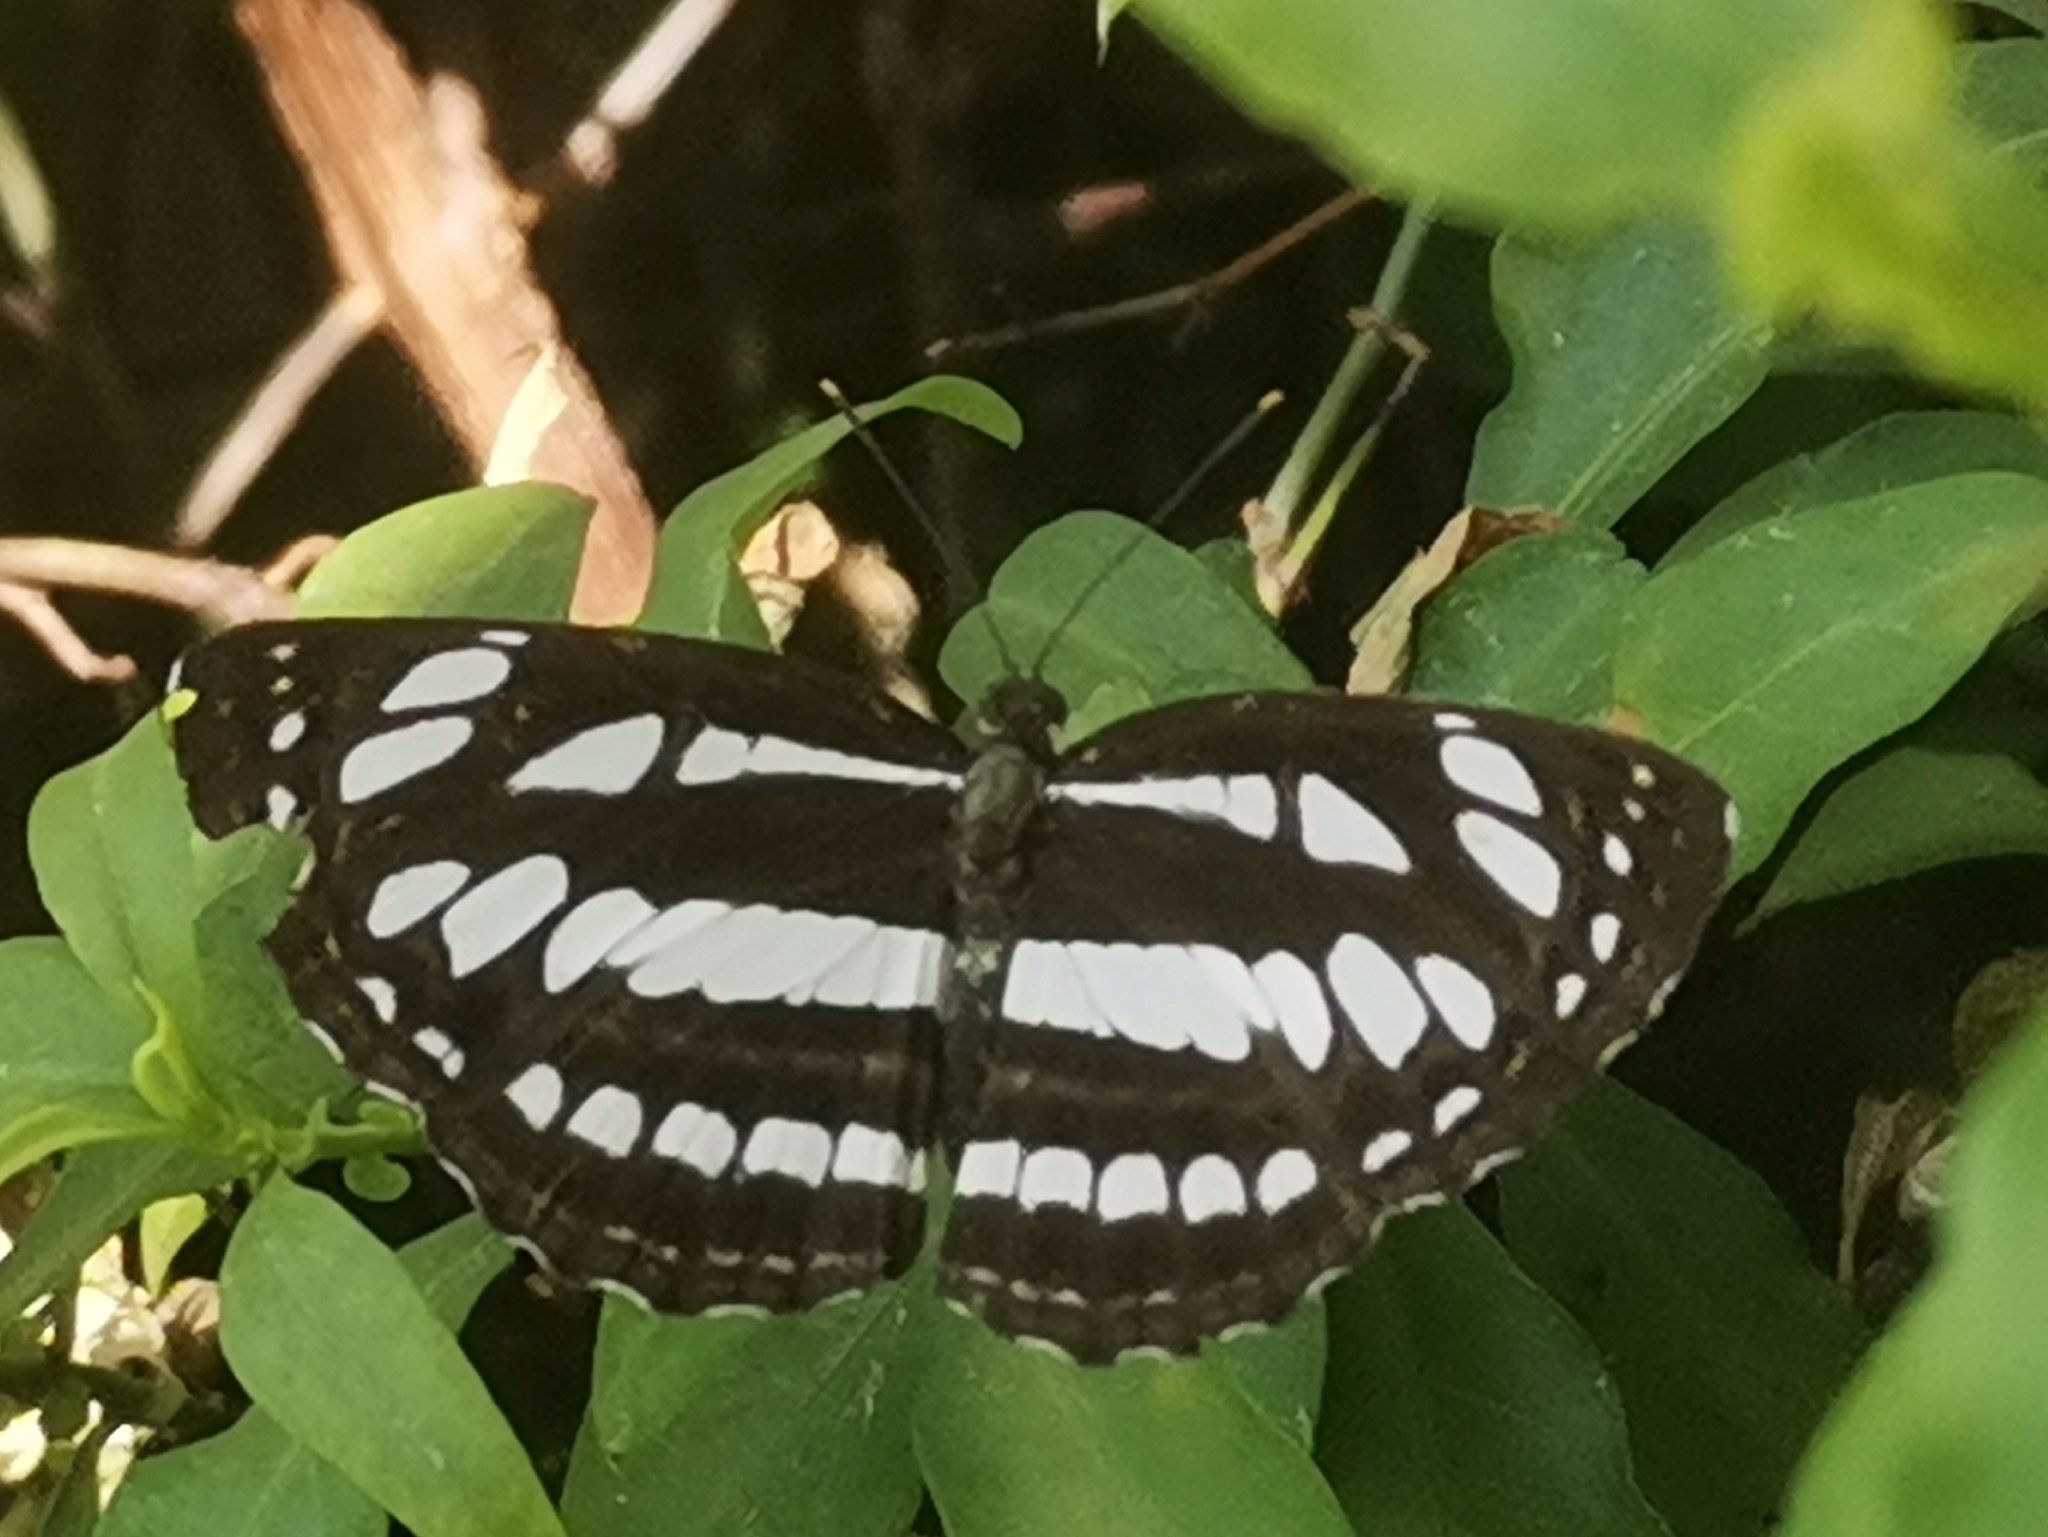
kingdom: Animalia
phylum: Arthropoda
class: Insecta
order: Lepidoptera
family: Nymphalidae
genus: Neptis
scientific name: Neptis hylas
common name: Common sailer
